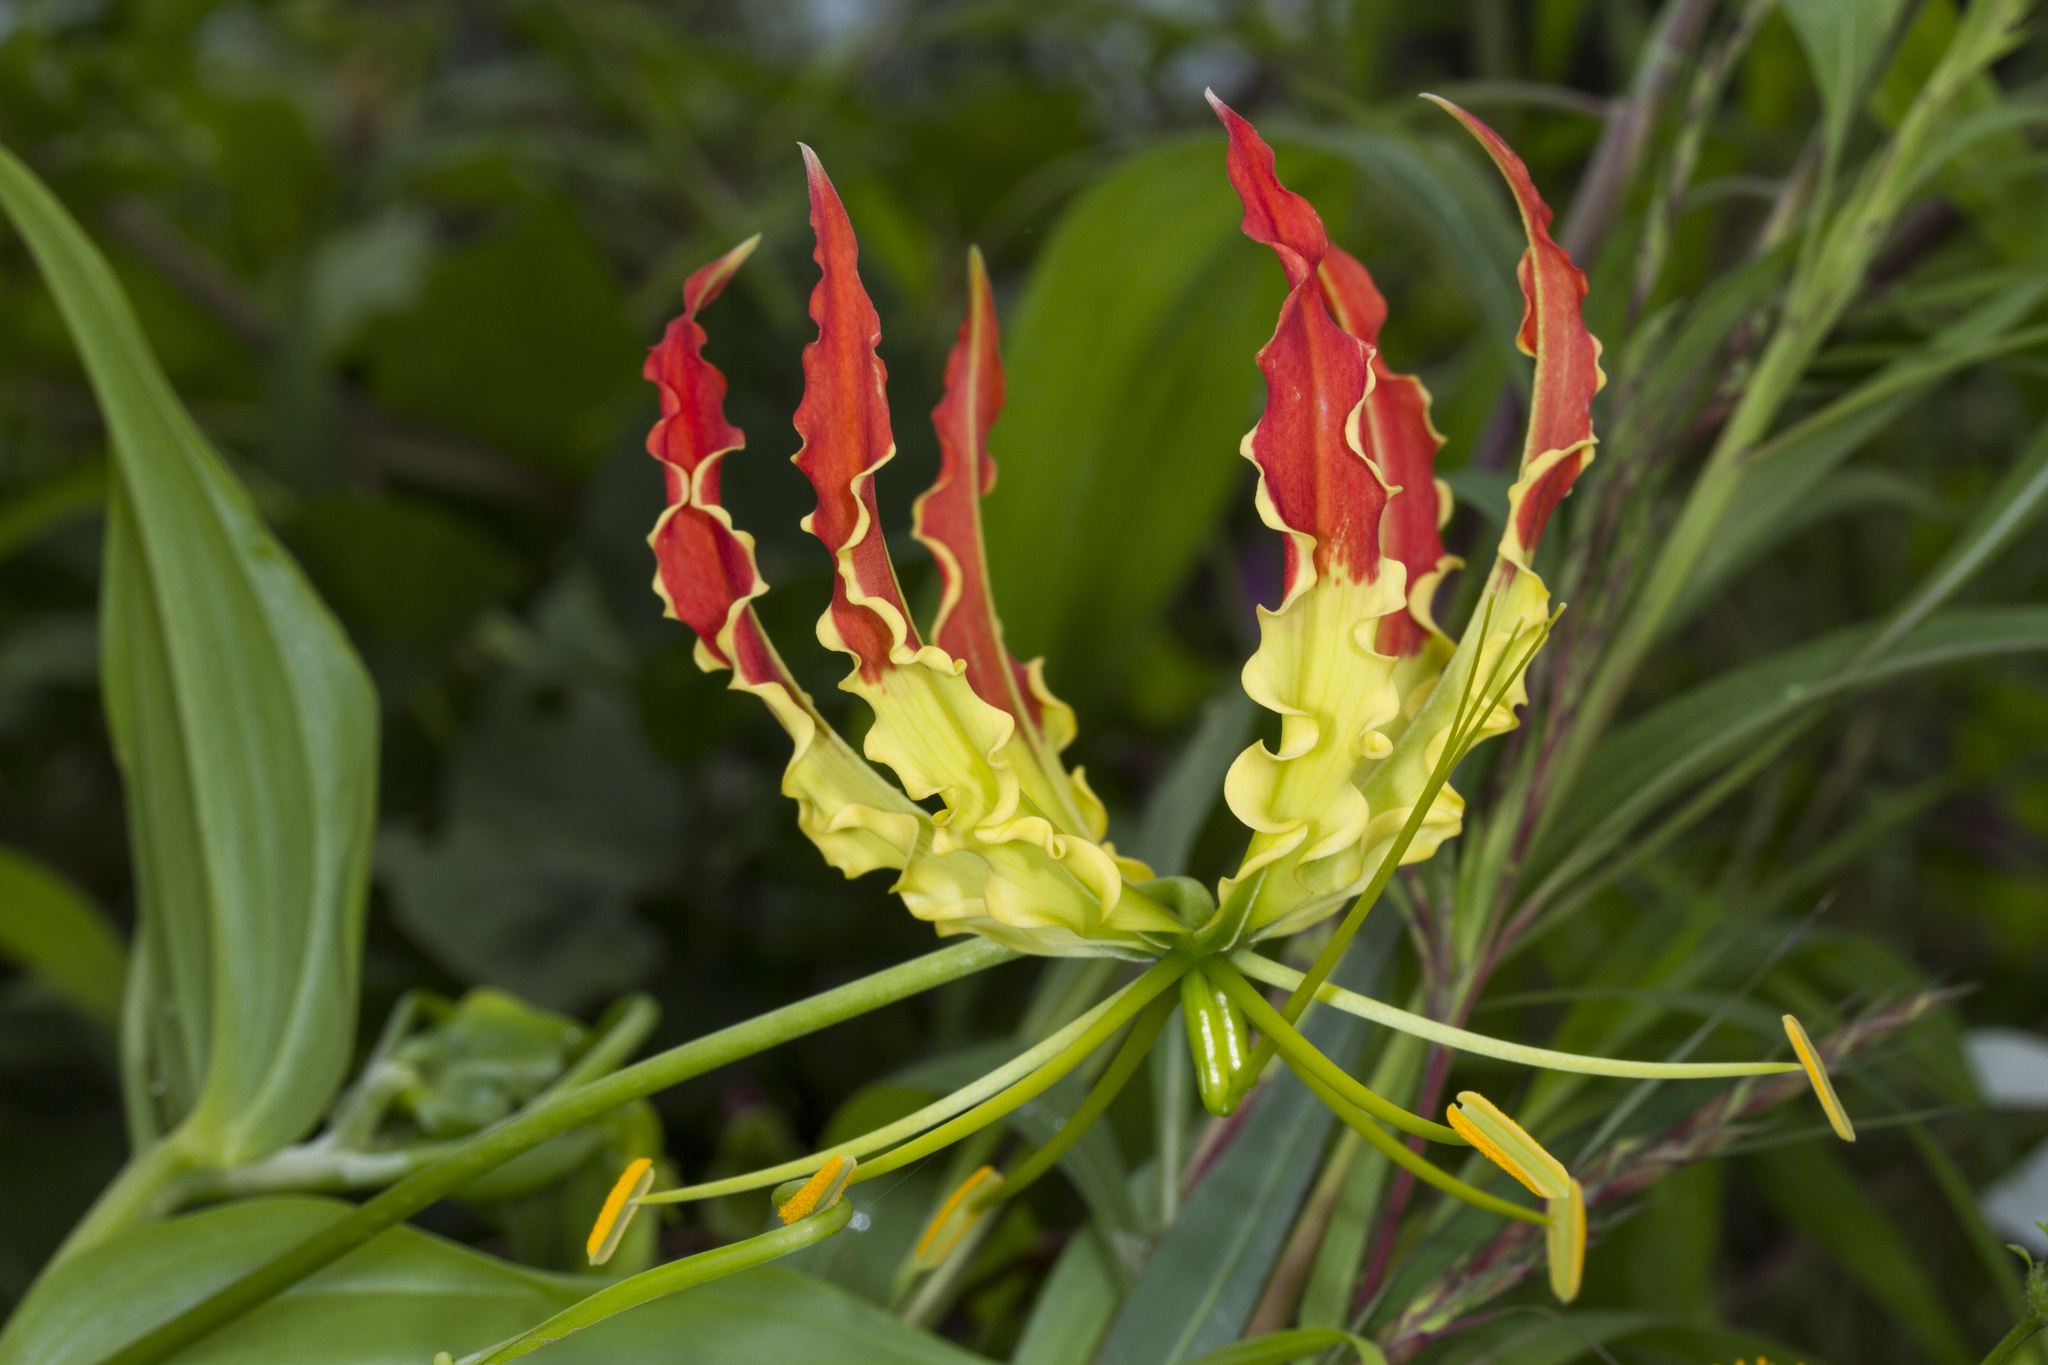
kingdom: Plantae
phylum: Tracheophyta
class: Liliopsida
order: Liliales
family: Colchicaceae
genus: Gloriosa
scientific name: Gloriosa superba
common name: Flame lily
